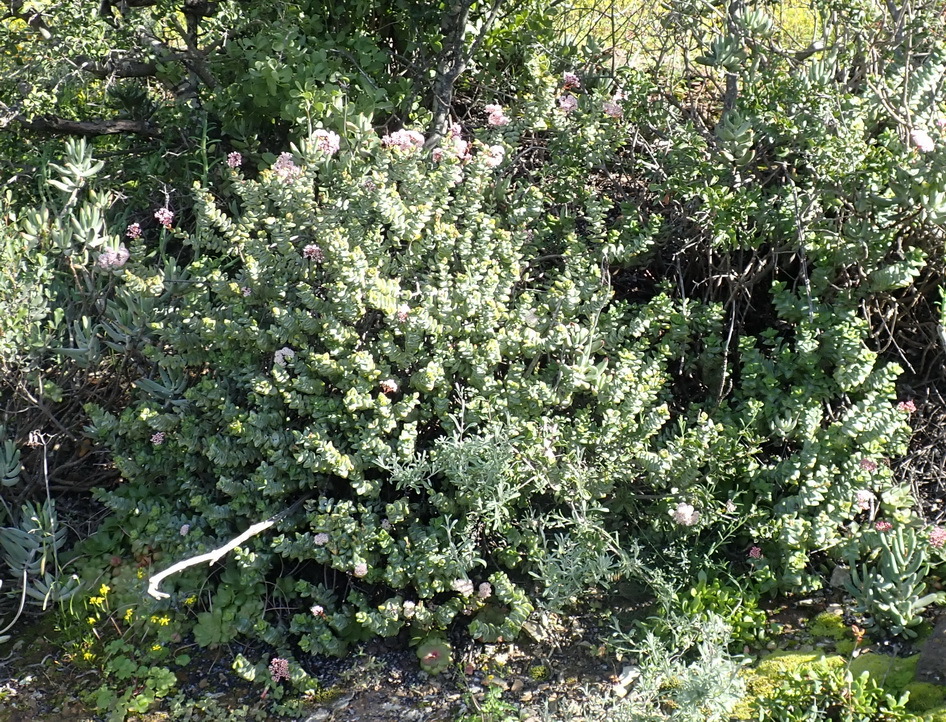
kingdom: Plantae
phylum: Tracheophyta
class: Magnoliopsida
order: Saxifragales
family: Crassulaceae
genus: Crassula
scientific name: Crassula rupestris
